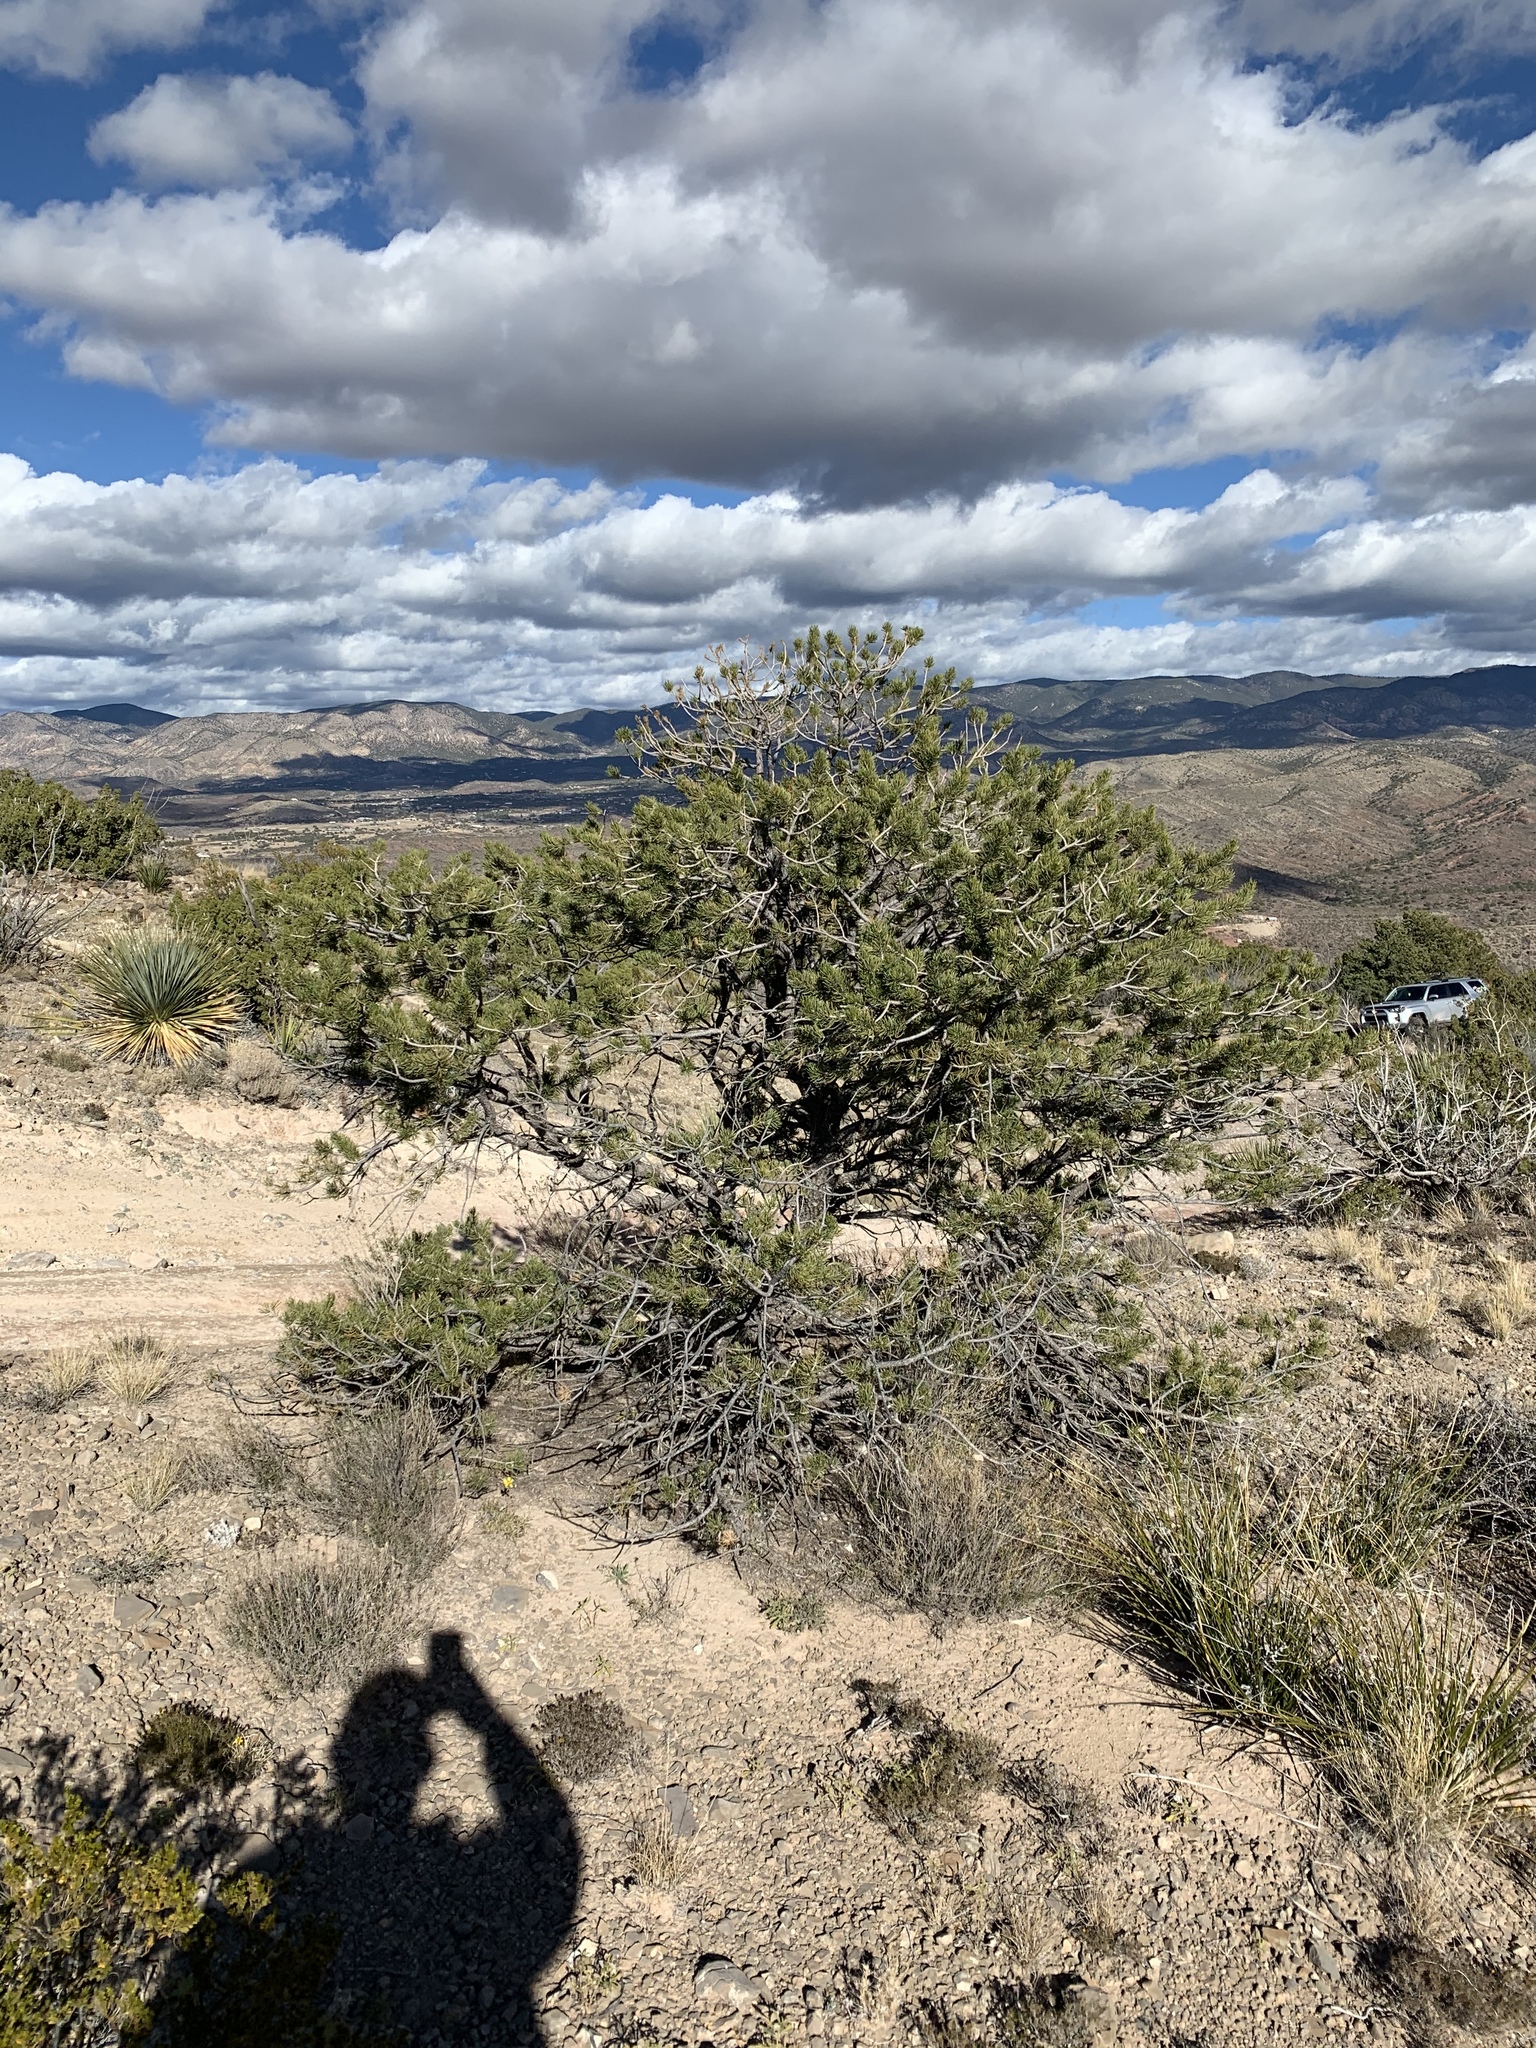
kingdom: Plantae
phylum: Tracheophyta
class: Pinopsida
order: Pinales
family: Pinaceae
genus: Pinus
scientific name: Pinus edulis
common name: Colorado pinyon
